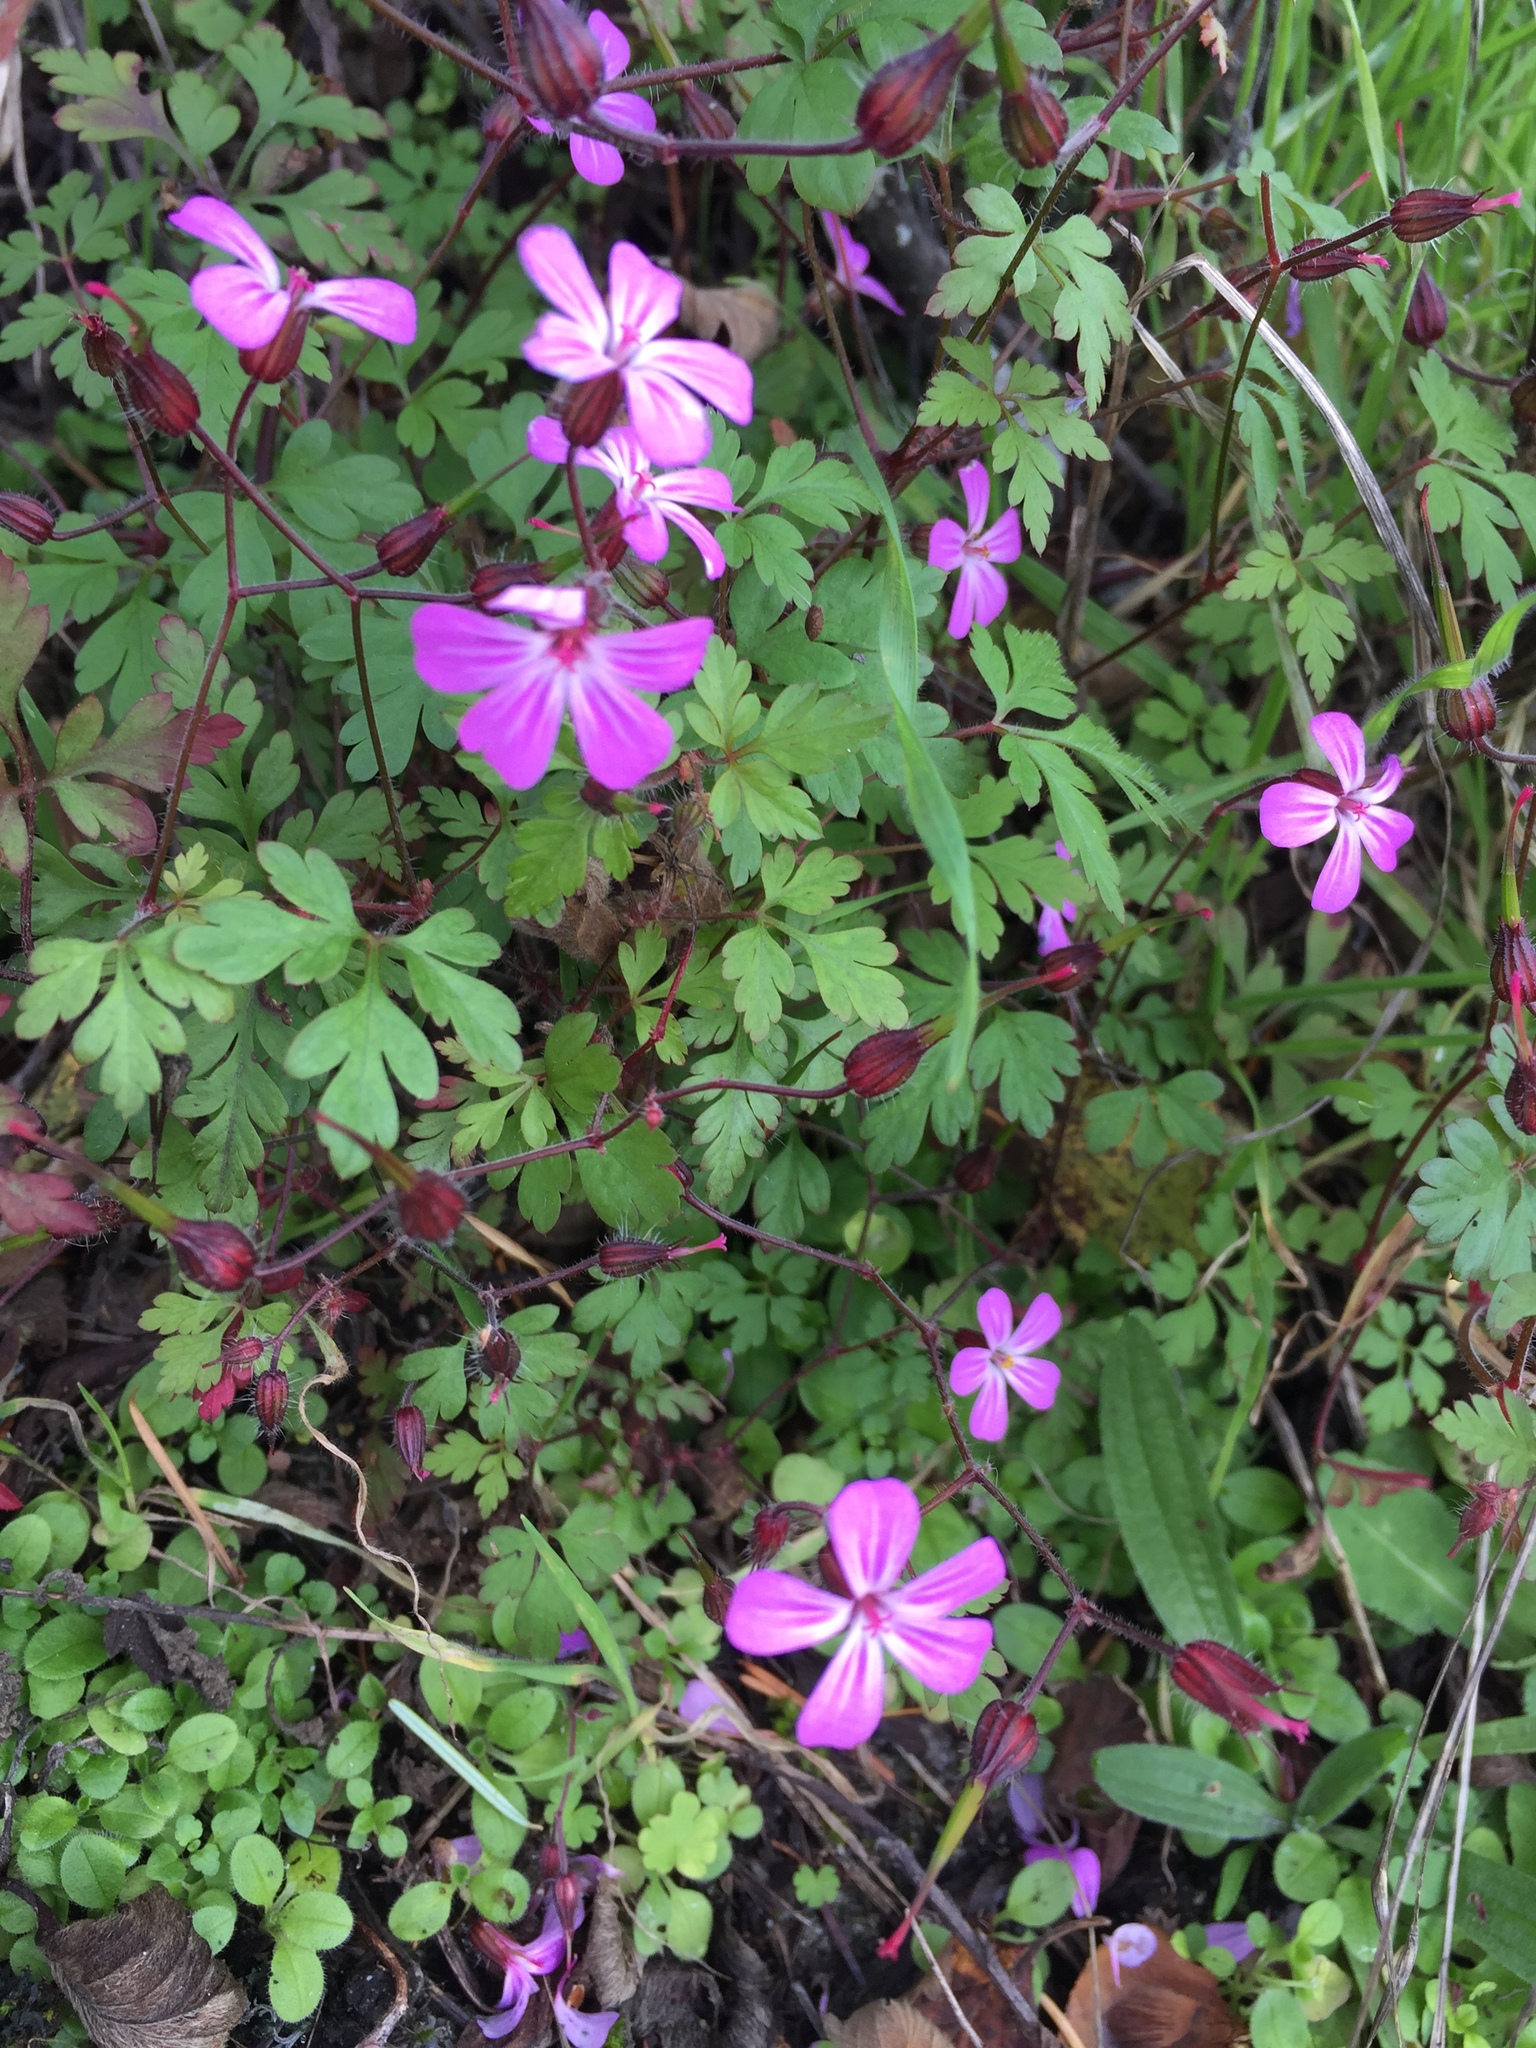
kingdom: Plantae
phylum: Tracheophyta
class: Magnoliopsida
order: Geraniales
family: Geraniaceae
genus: Geranium
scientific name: Geranium robertianum
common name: Herb-robert
